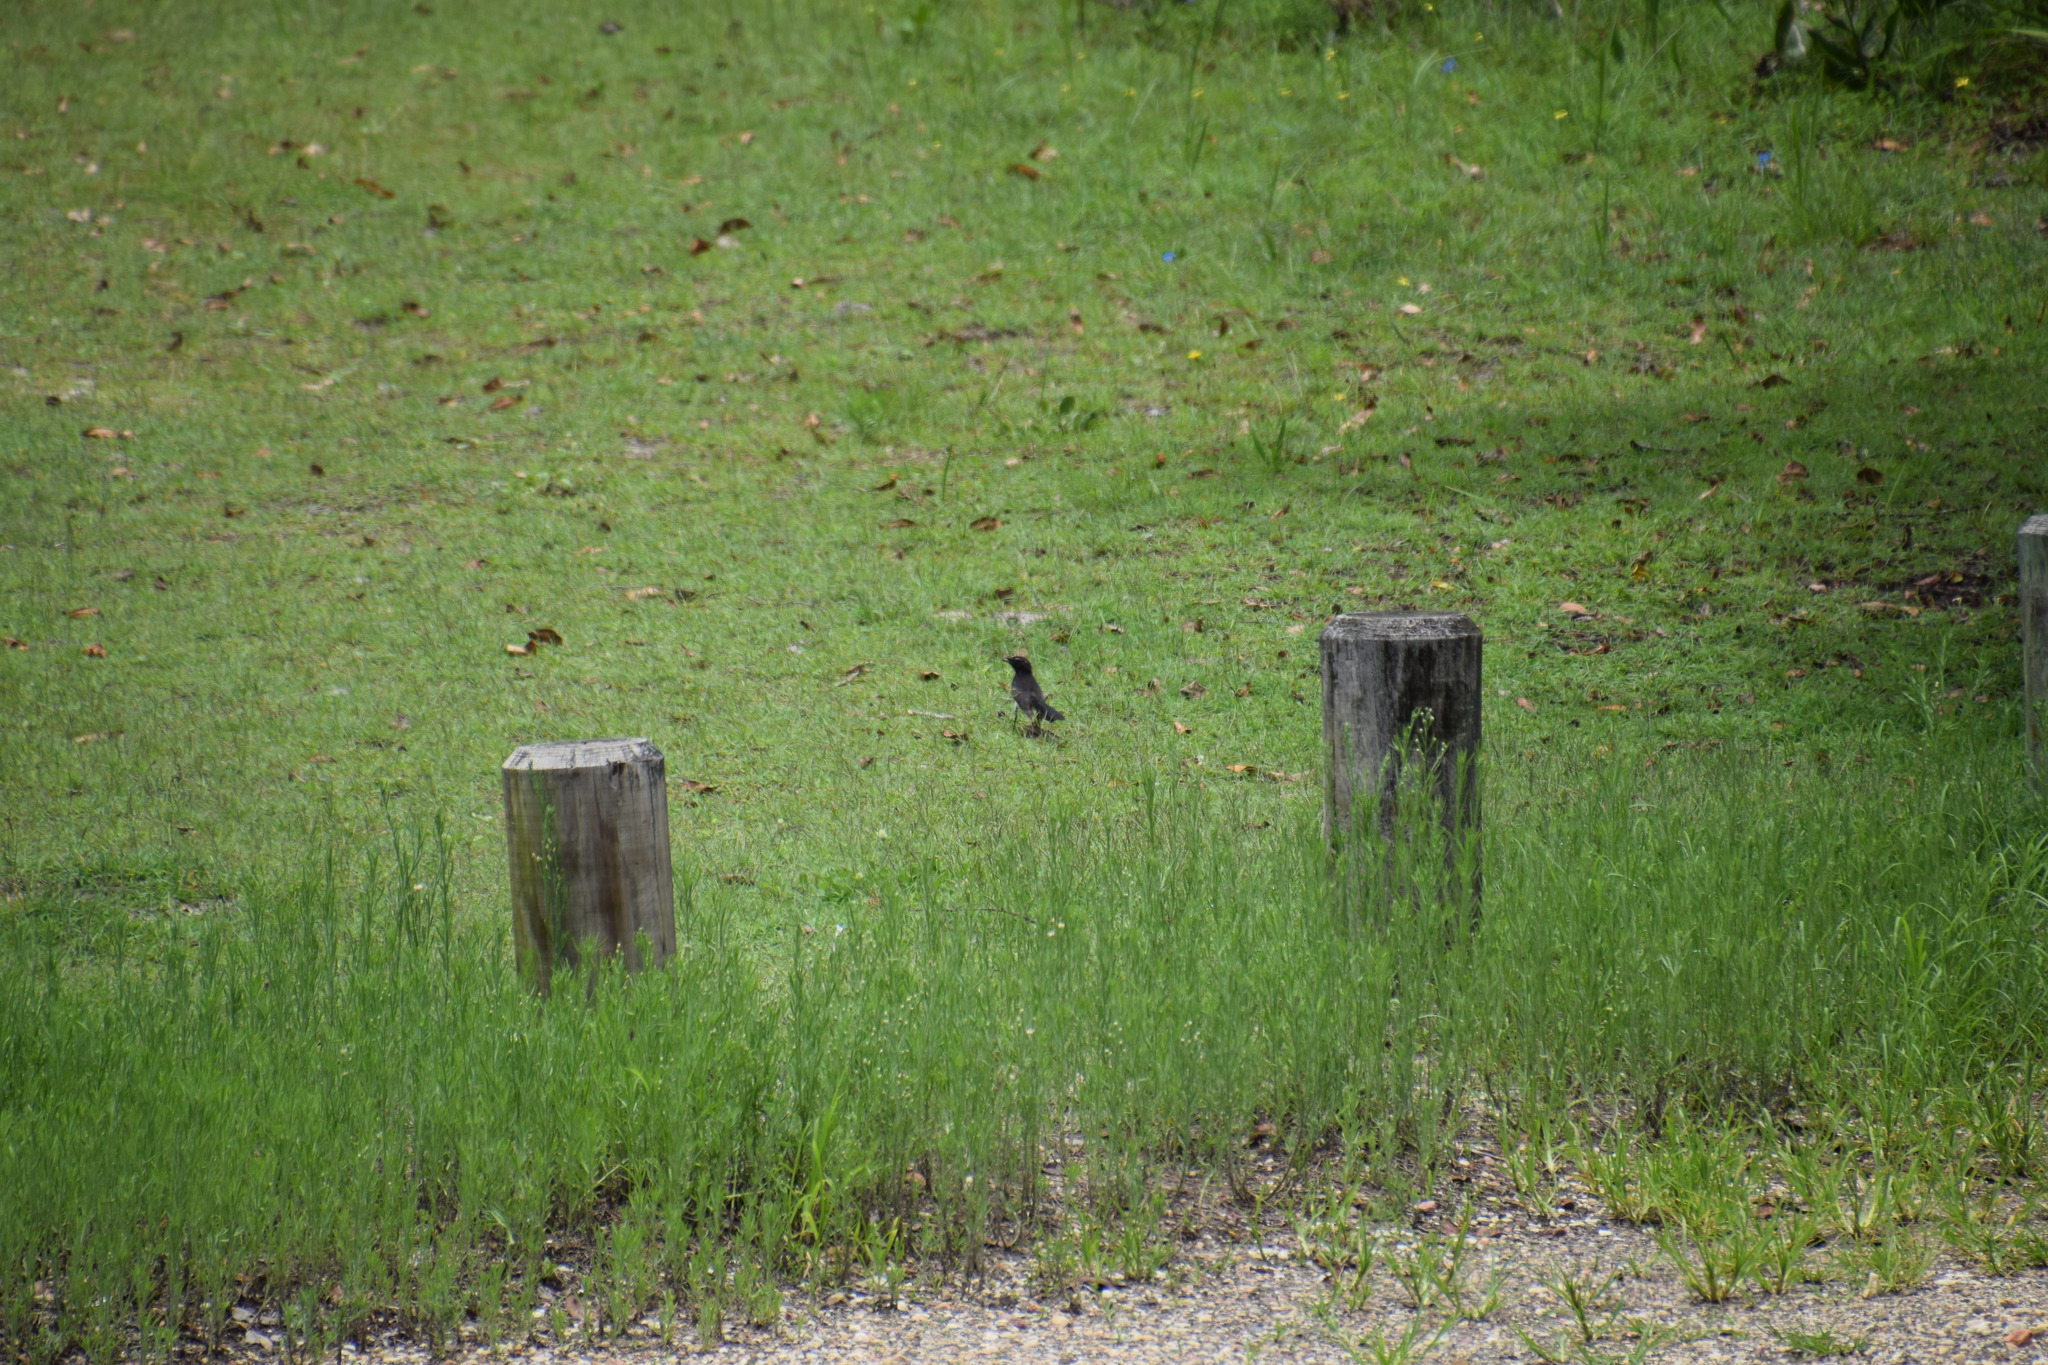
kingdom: Animalia
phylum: Chordata
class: Aves
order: Passeriformes
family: Rhipiduridae
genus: Rhipidura
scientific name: Rhipidura leucophrys
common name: Willie wagtail
